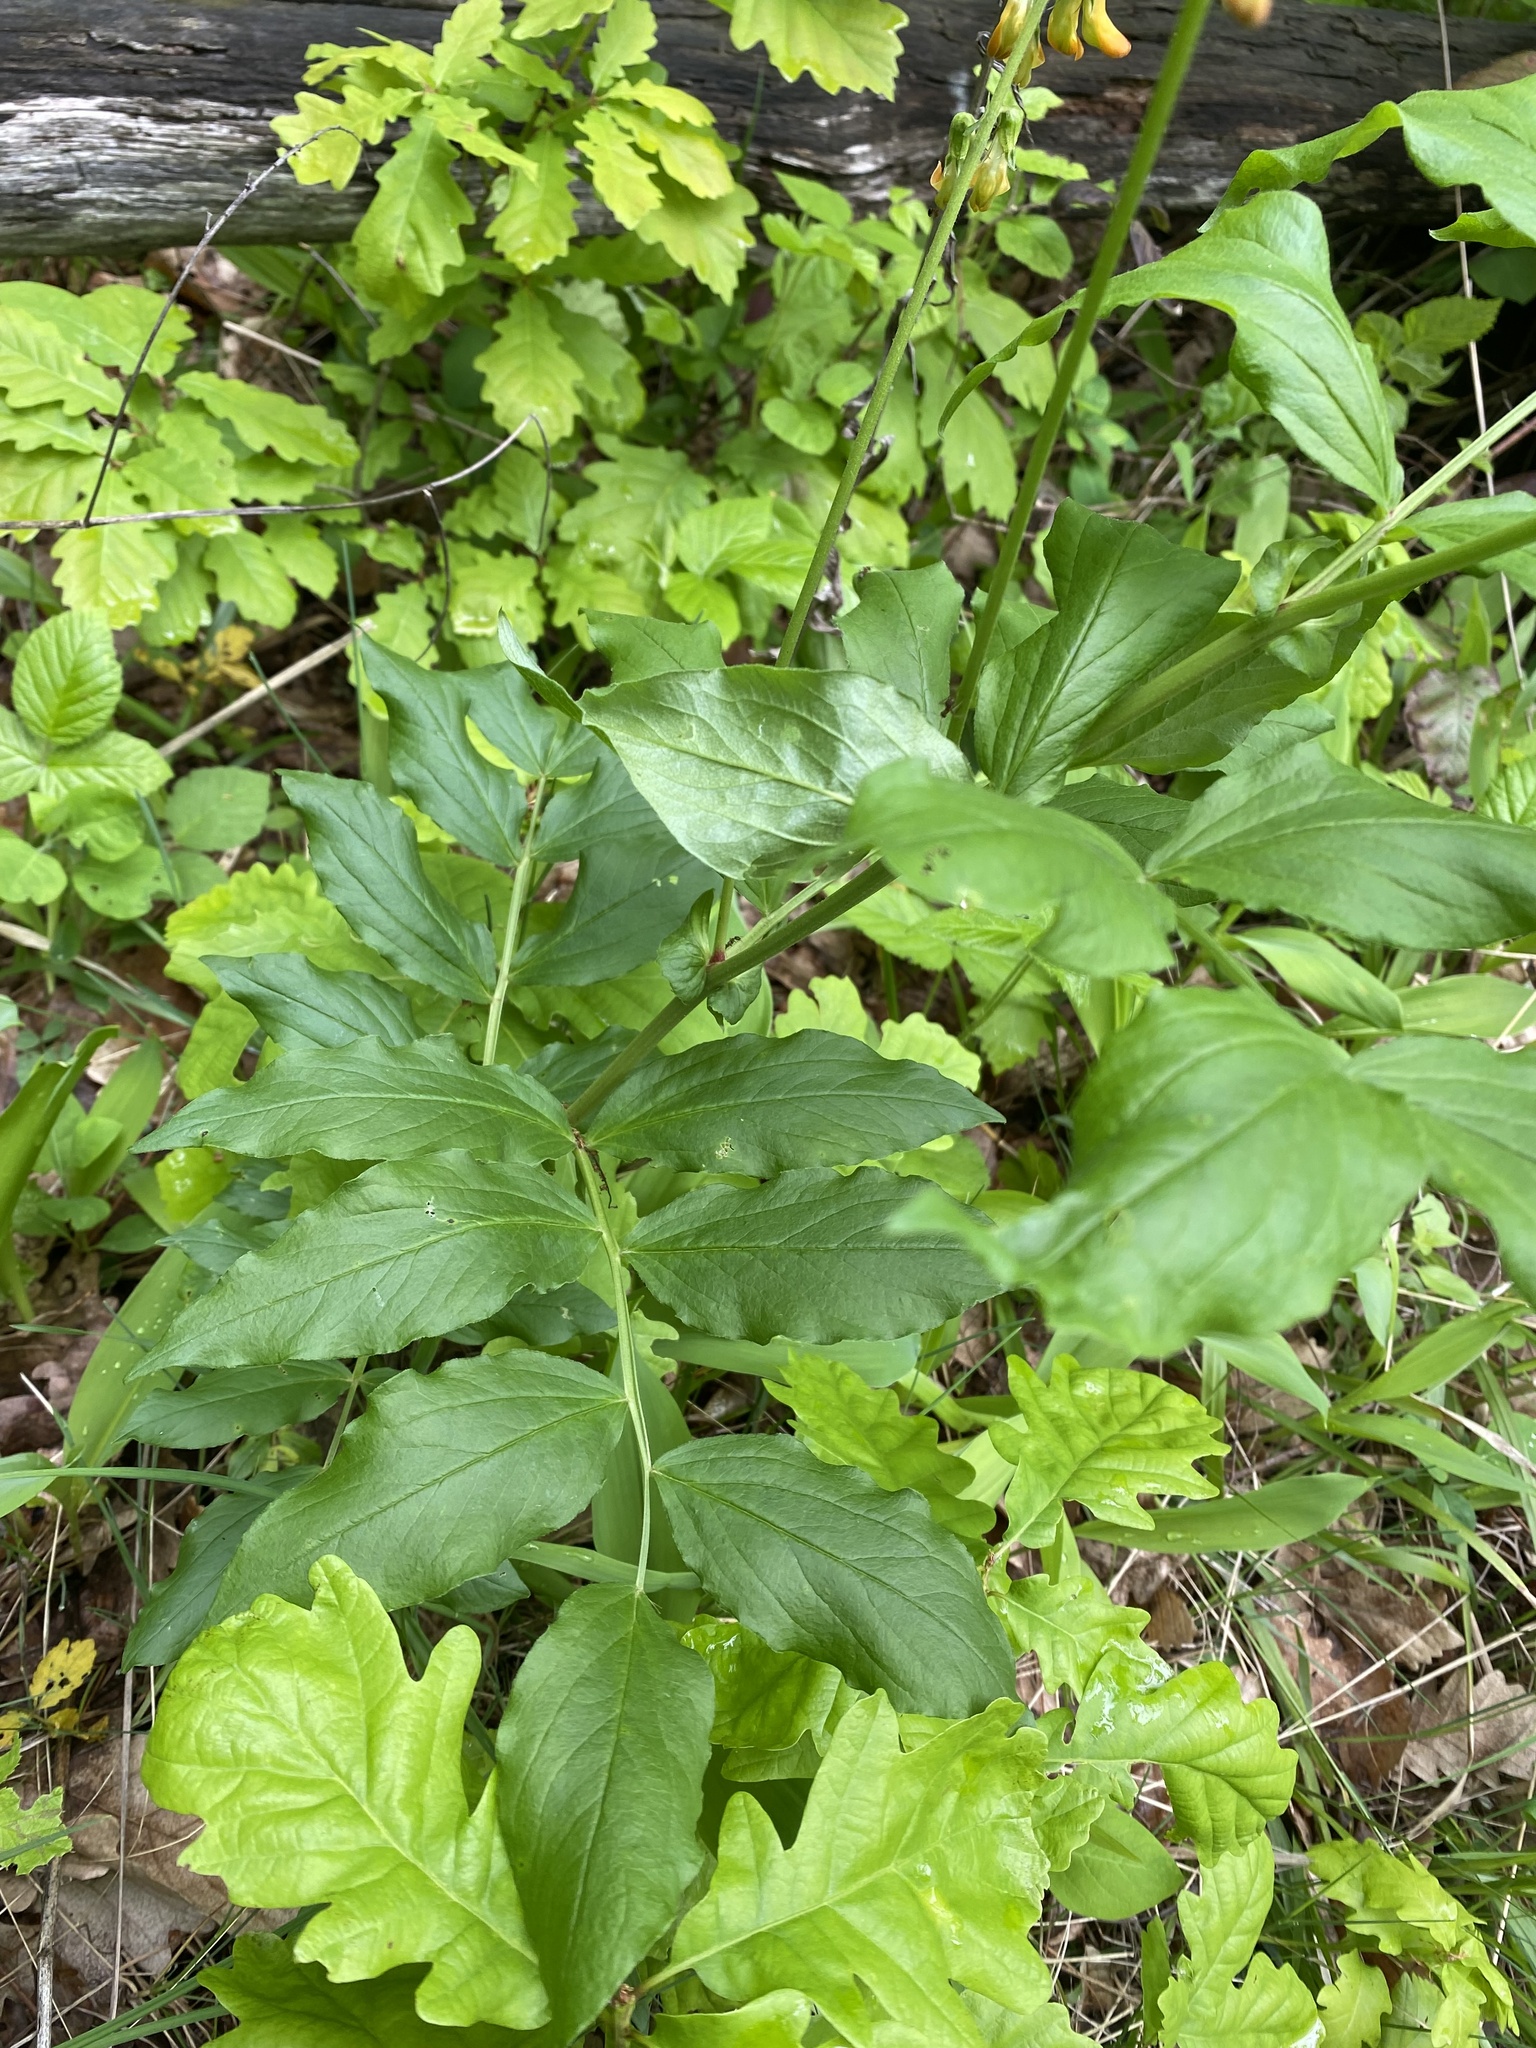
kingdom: Plantae
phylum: Tracheophyta
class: Magnoliopsida
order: Fabales
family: Fabaceae
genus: Lathyrus
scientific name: Lathyrus aureus
